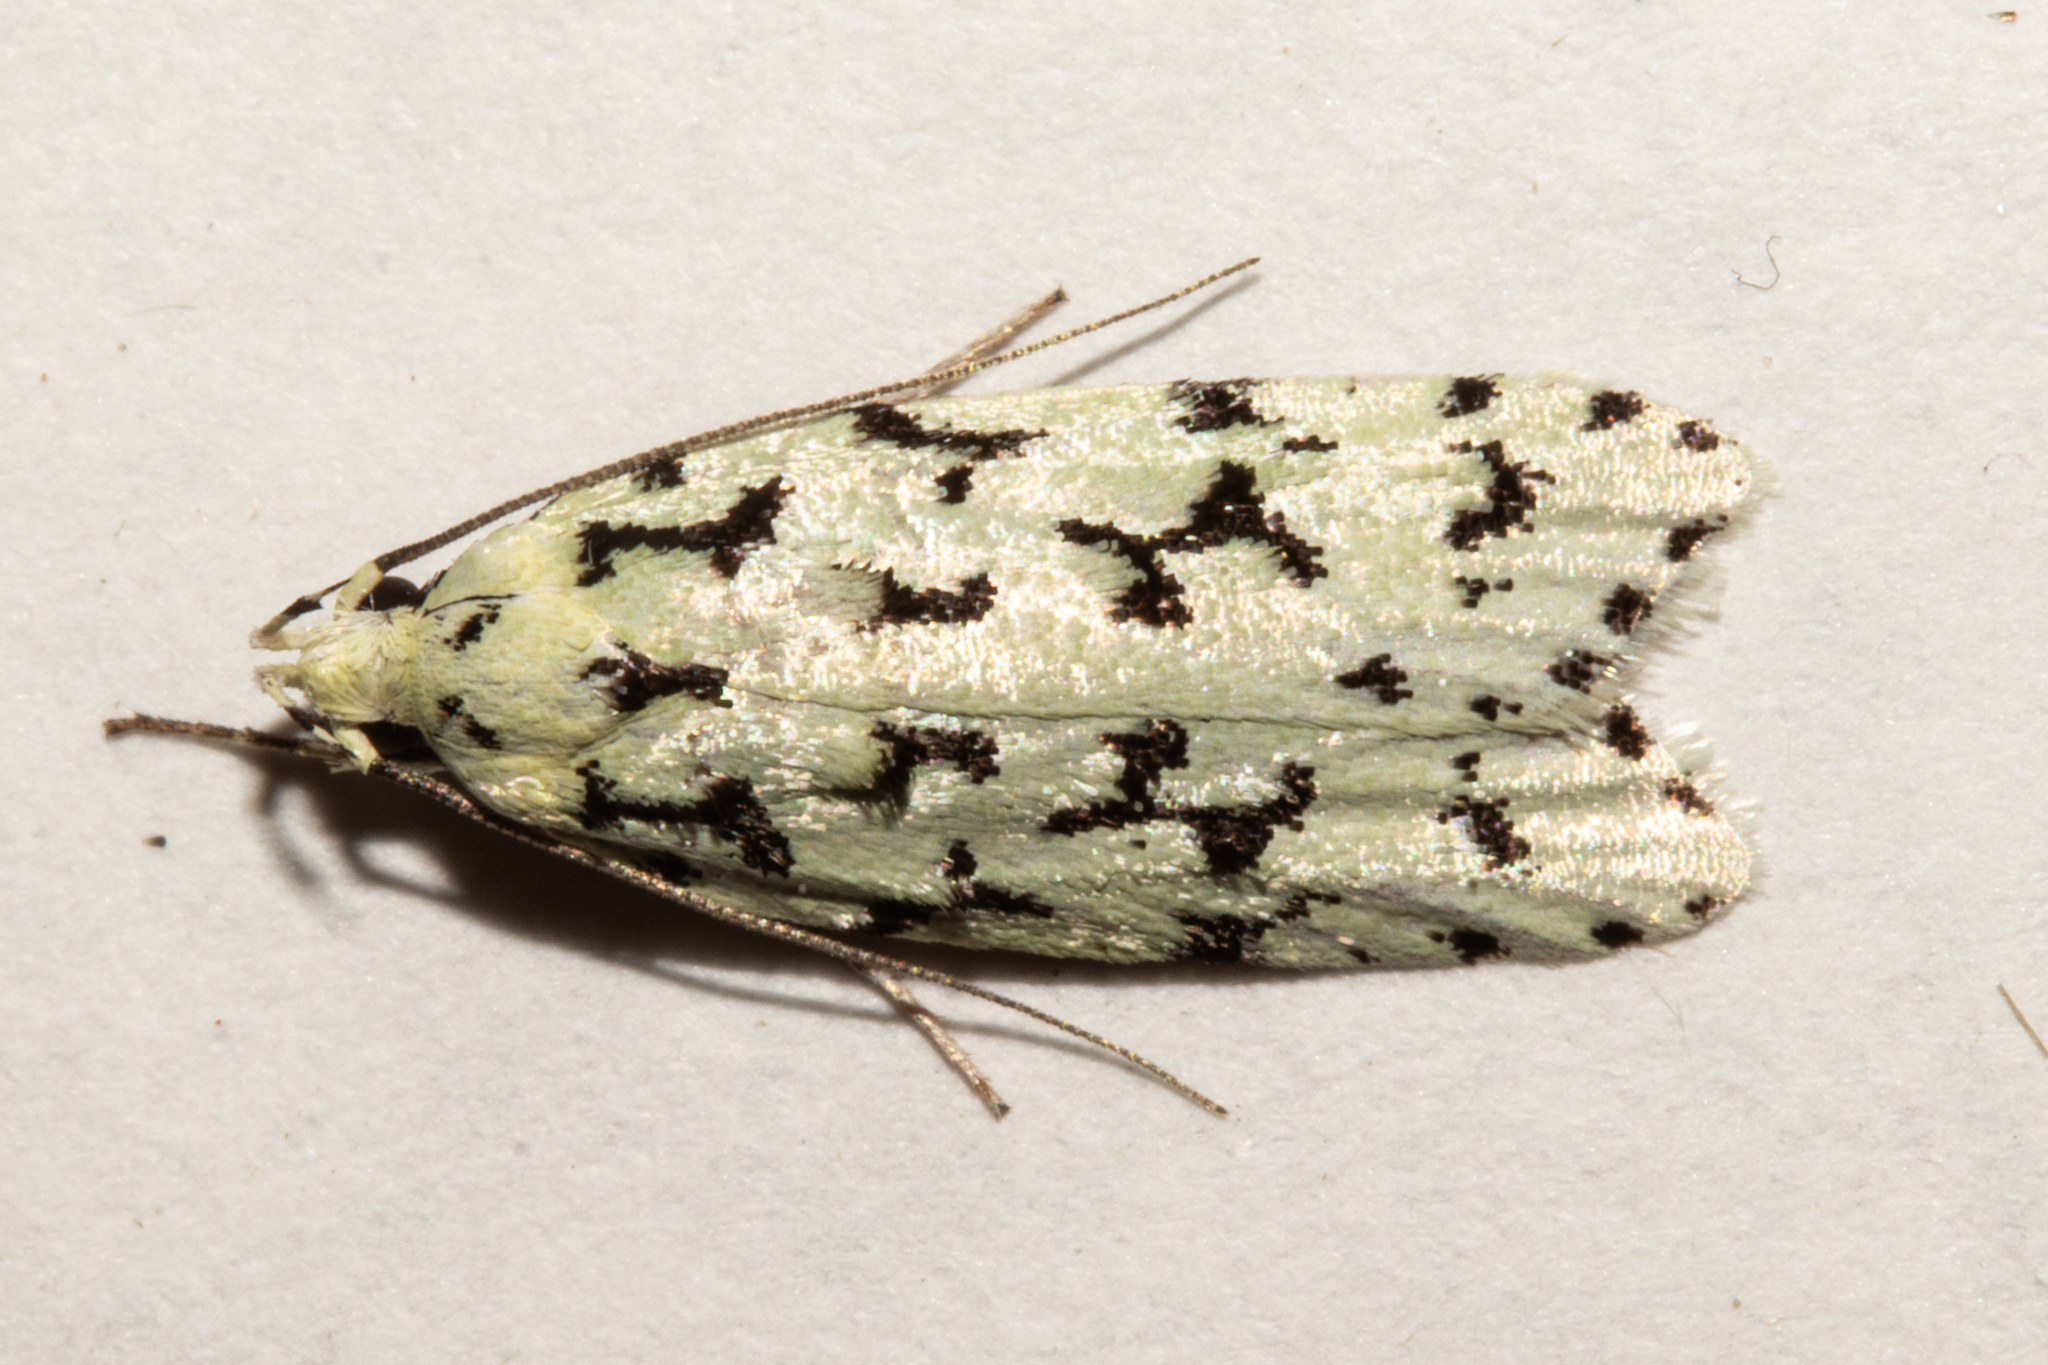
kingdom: Animalia
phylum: Arthropoda
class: Insecta
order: Lepidoptera
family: Oecophoridae
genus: Izatha
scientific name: Izatha huttoni
